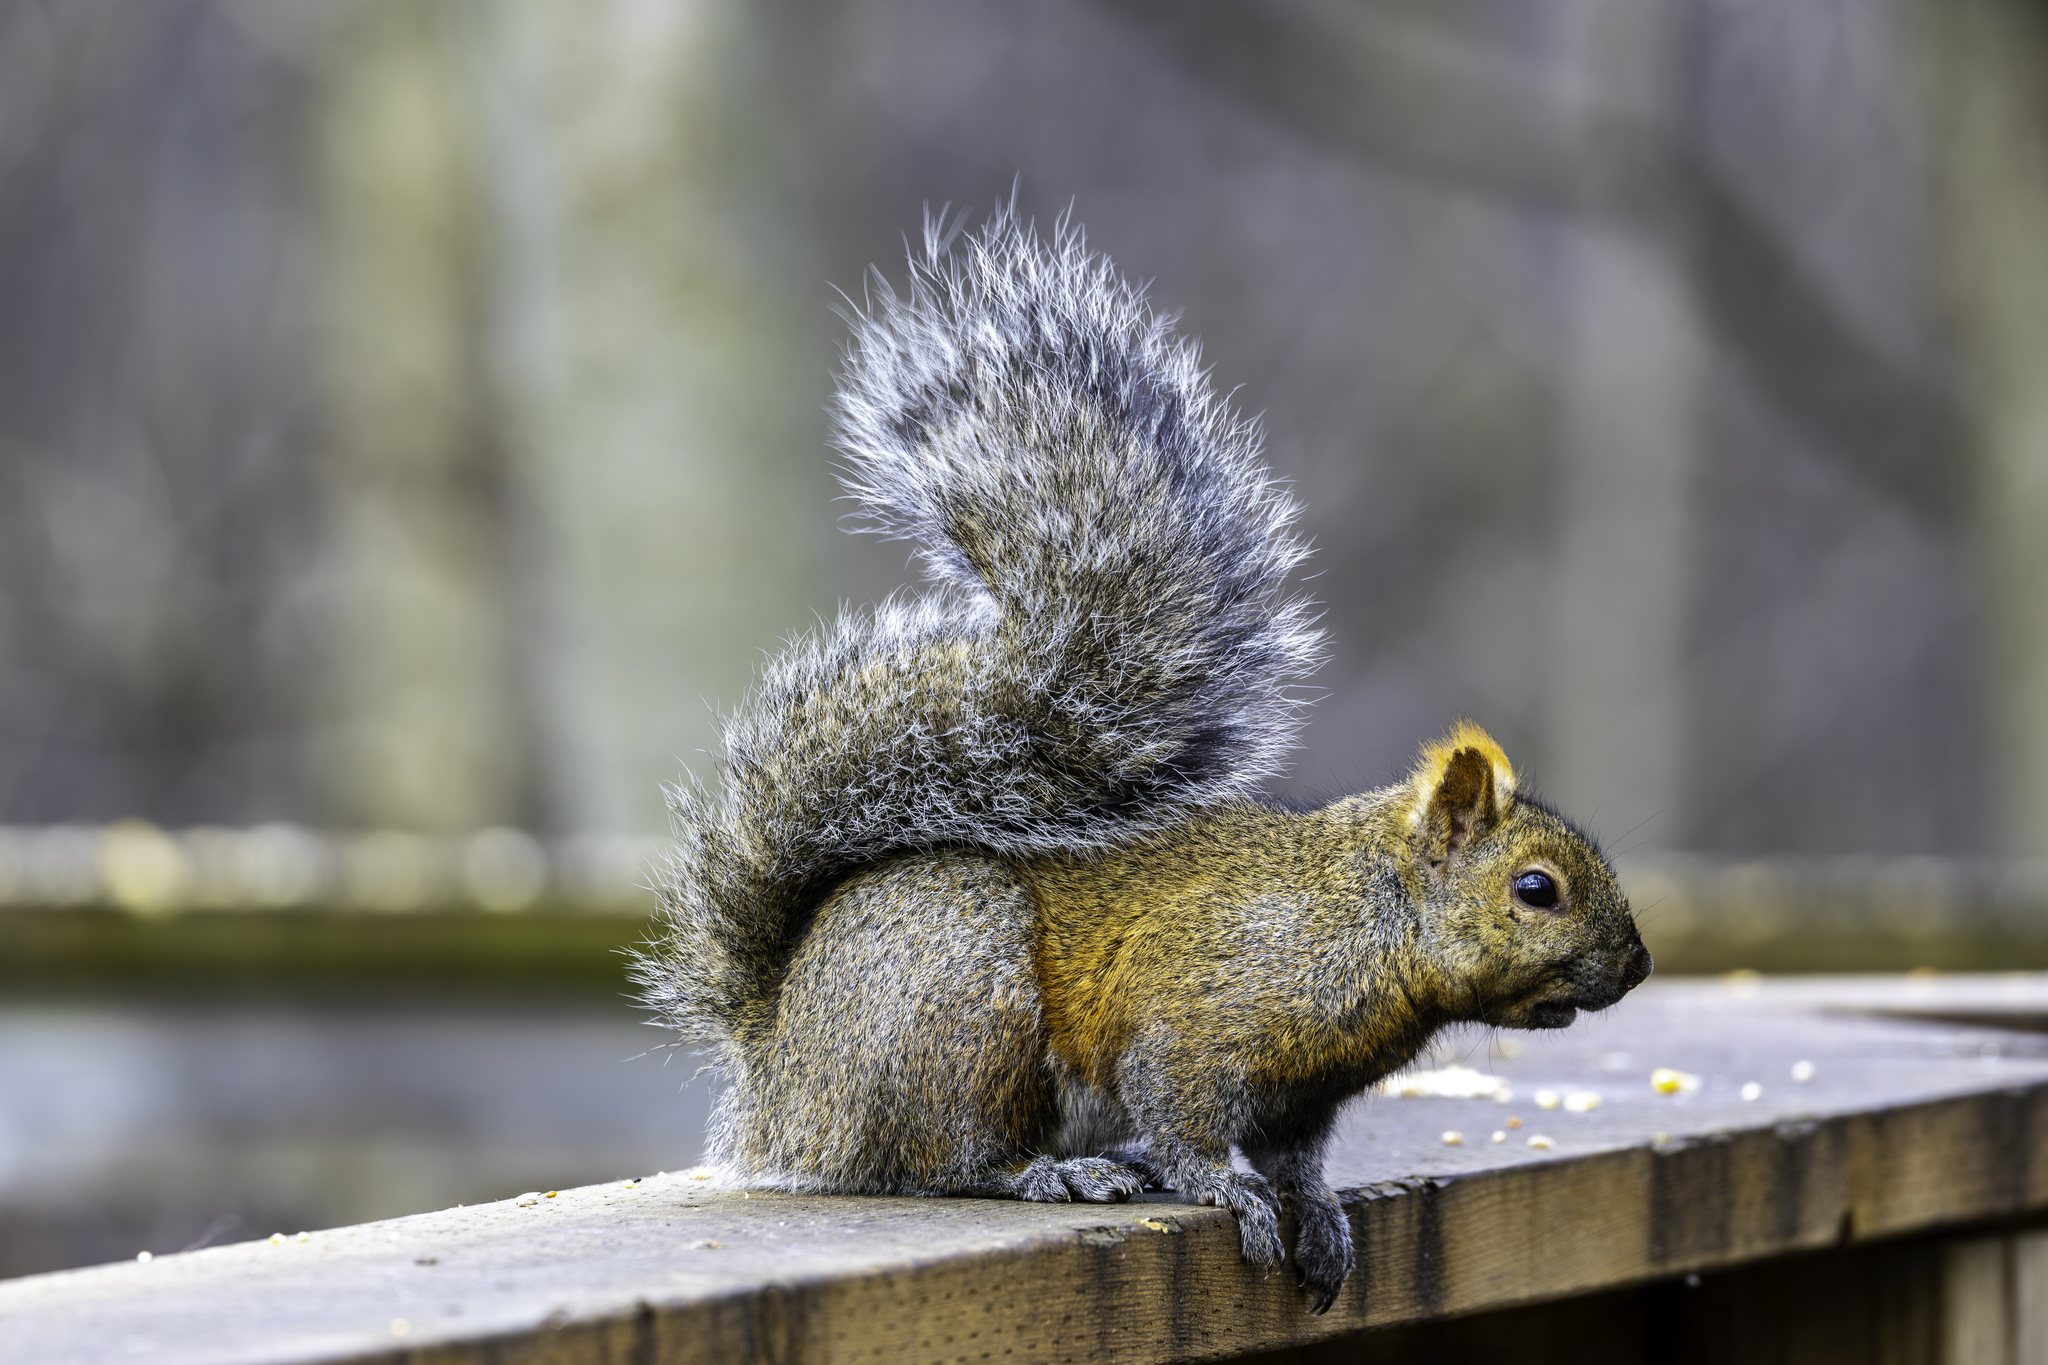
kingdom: Animalia
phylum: Chordata
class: Mammalia
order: Rodentia
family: Sciuridae
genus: Sciurus
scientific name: Sciurus carolinensis
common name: Eastern gray squirrel
